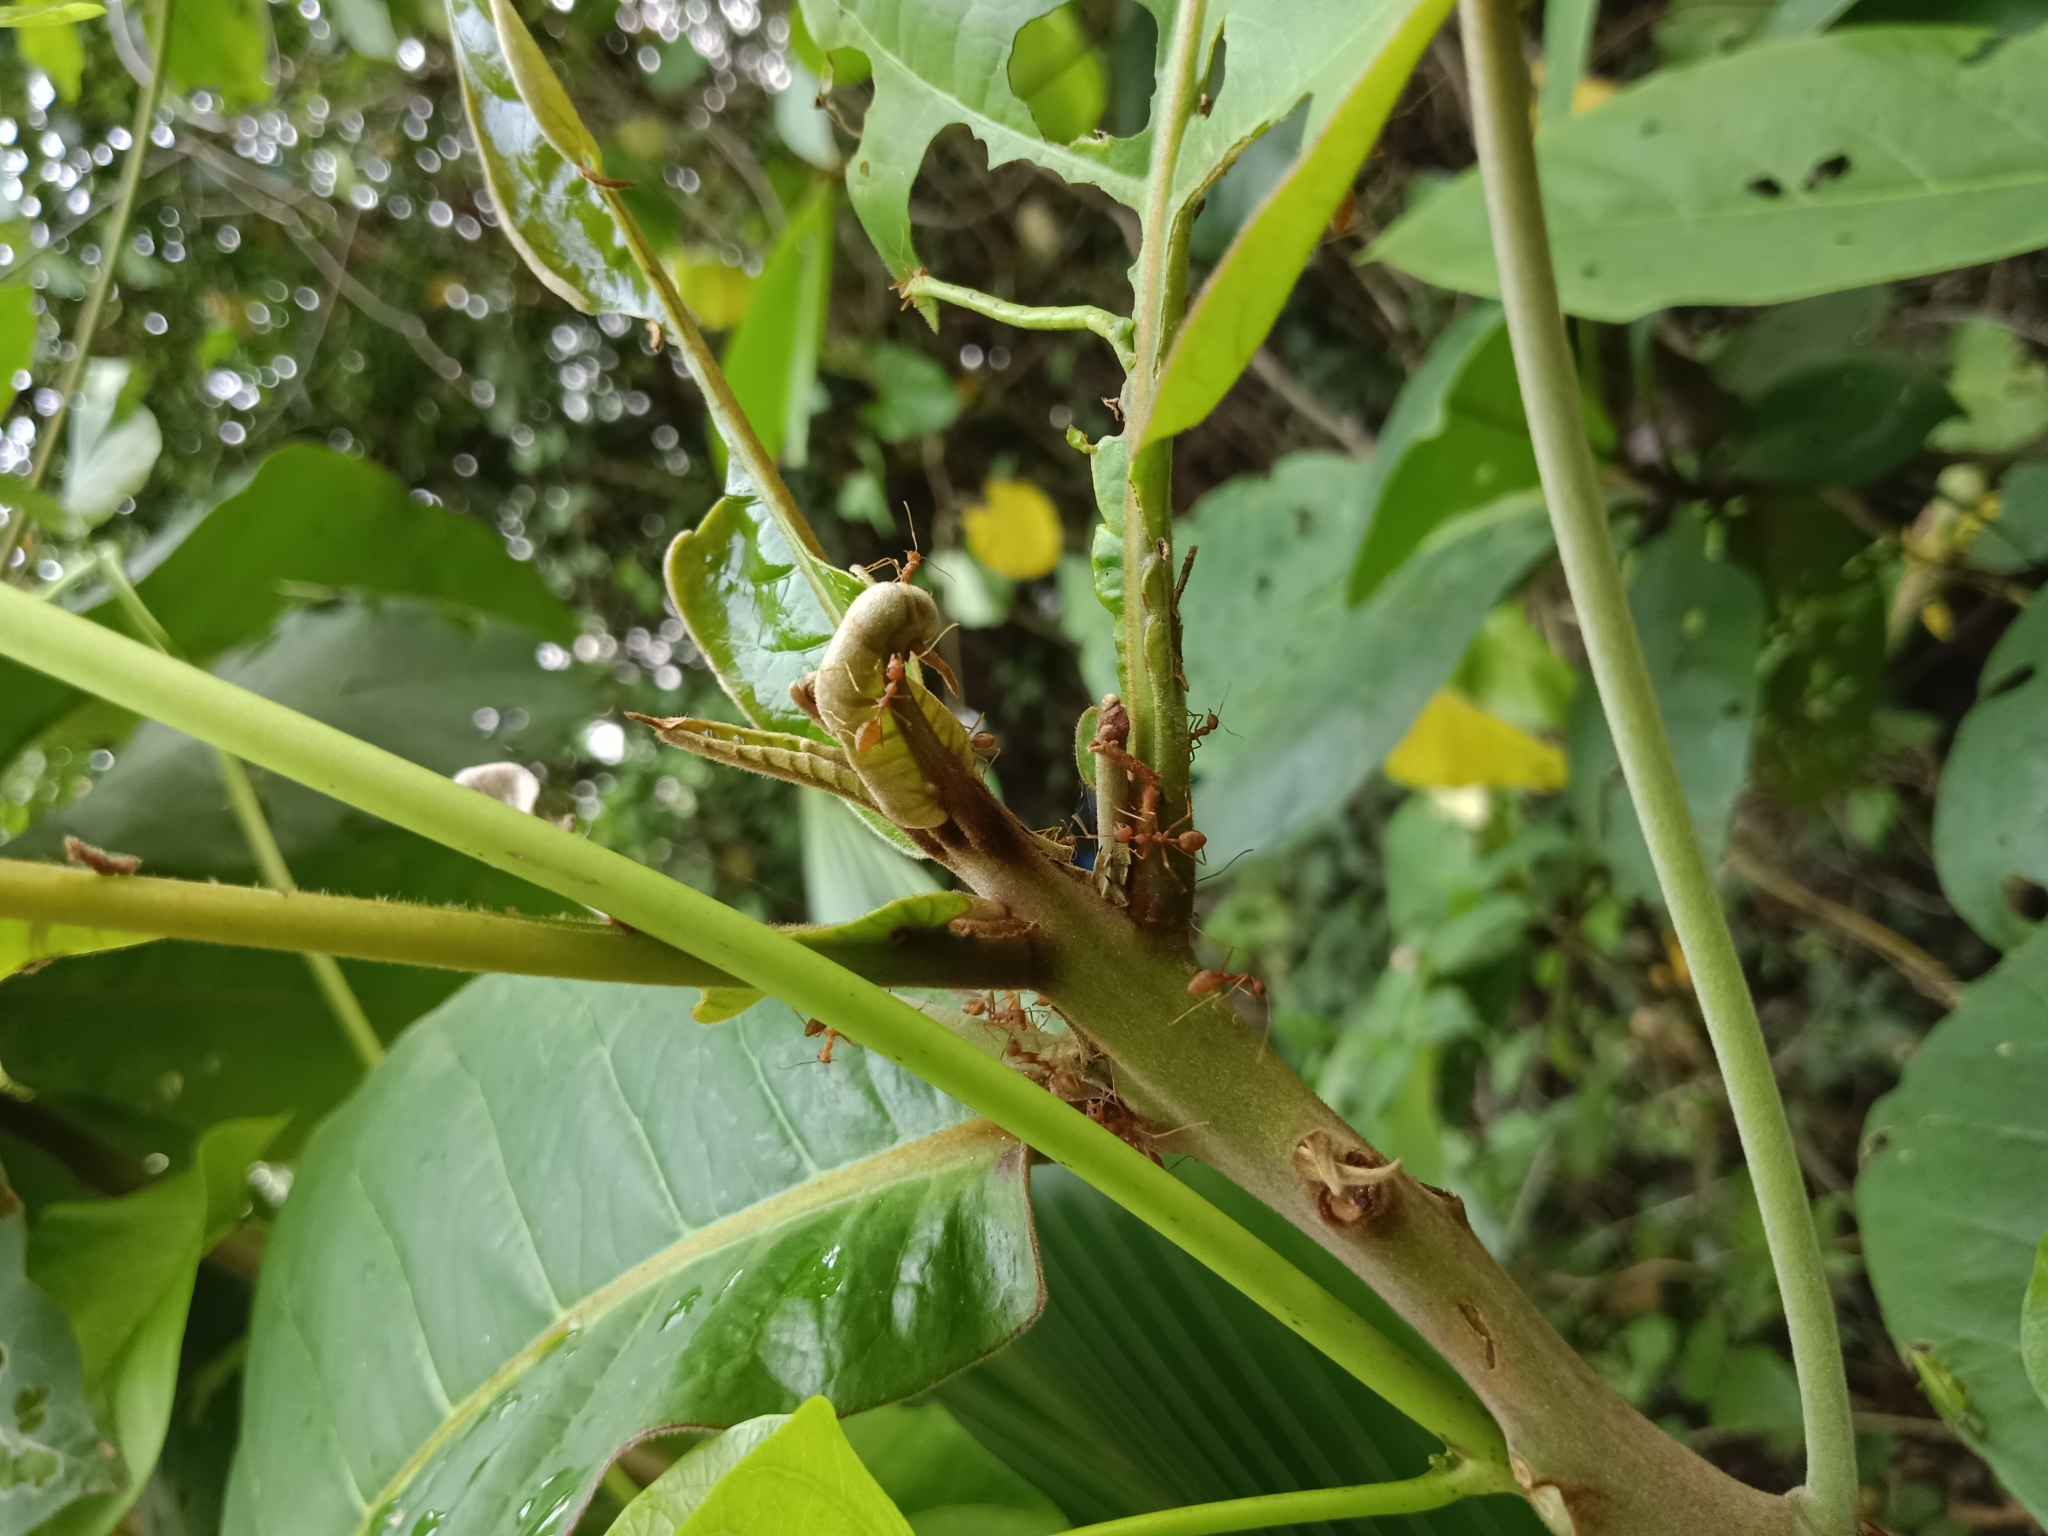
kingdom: Animalia
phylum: Arthropoda
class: Insecta
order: Hymenoptera
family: Formicidae
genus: Oecophylla
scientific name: Oecophylla smaragdina
